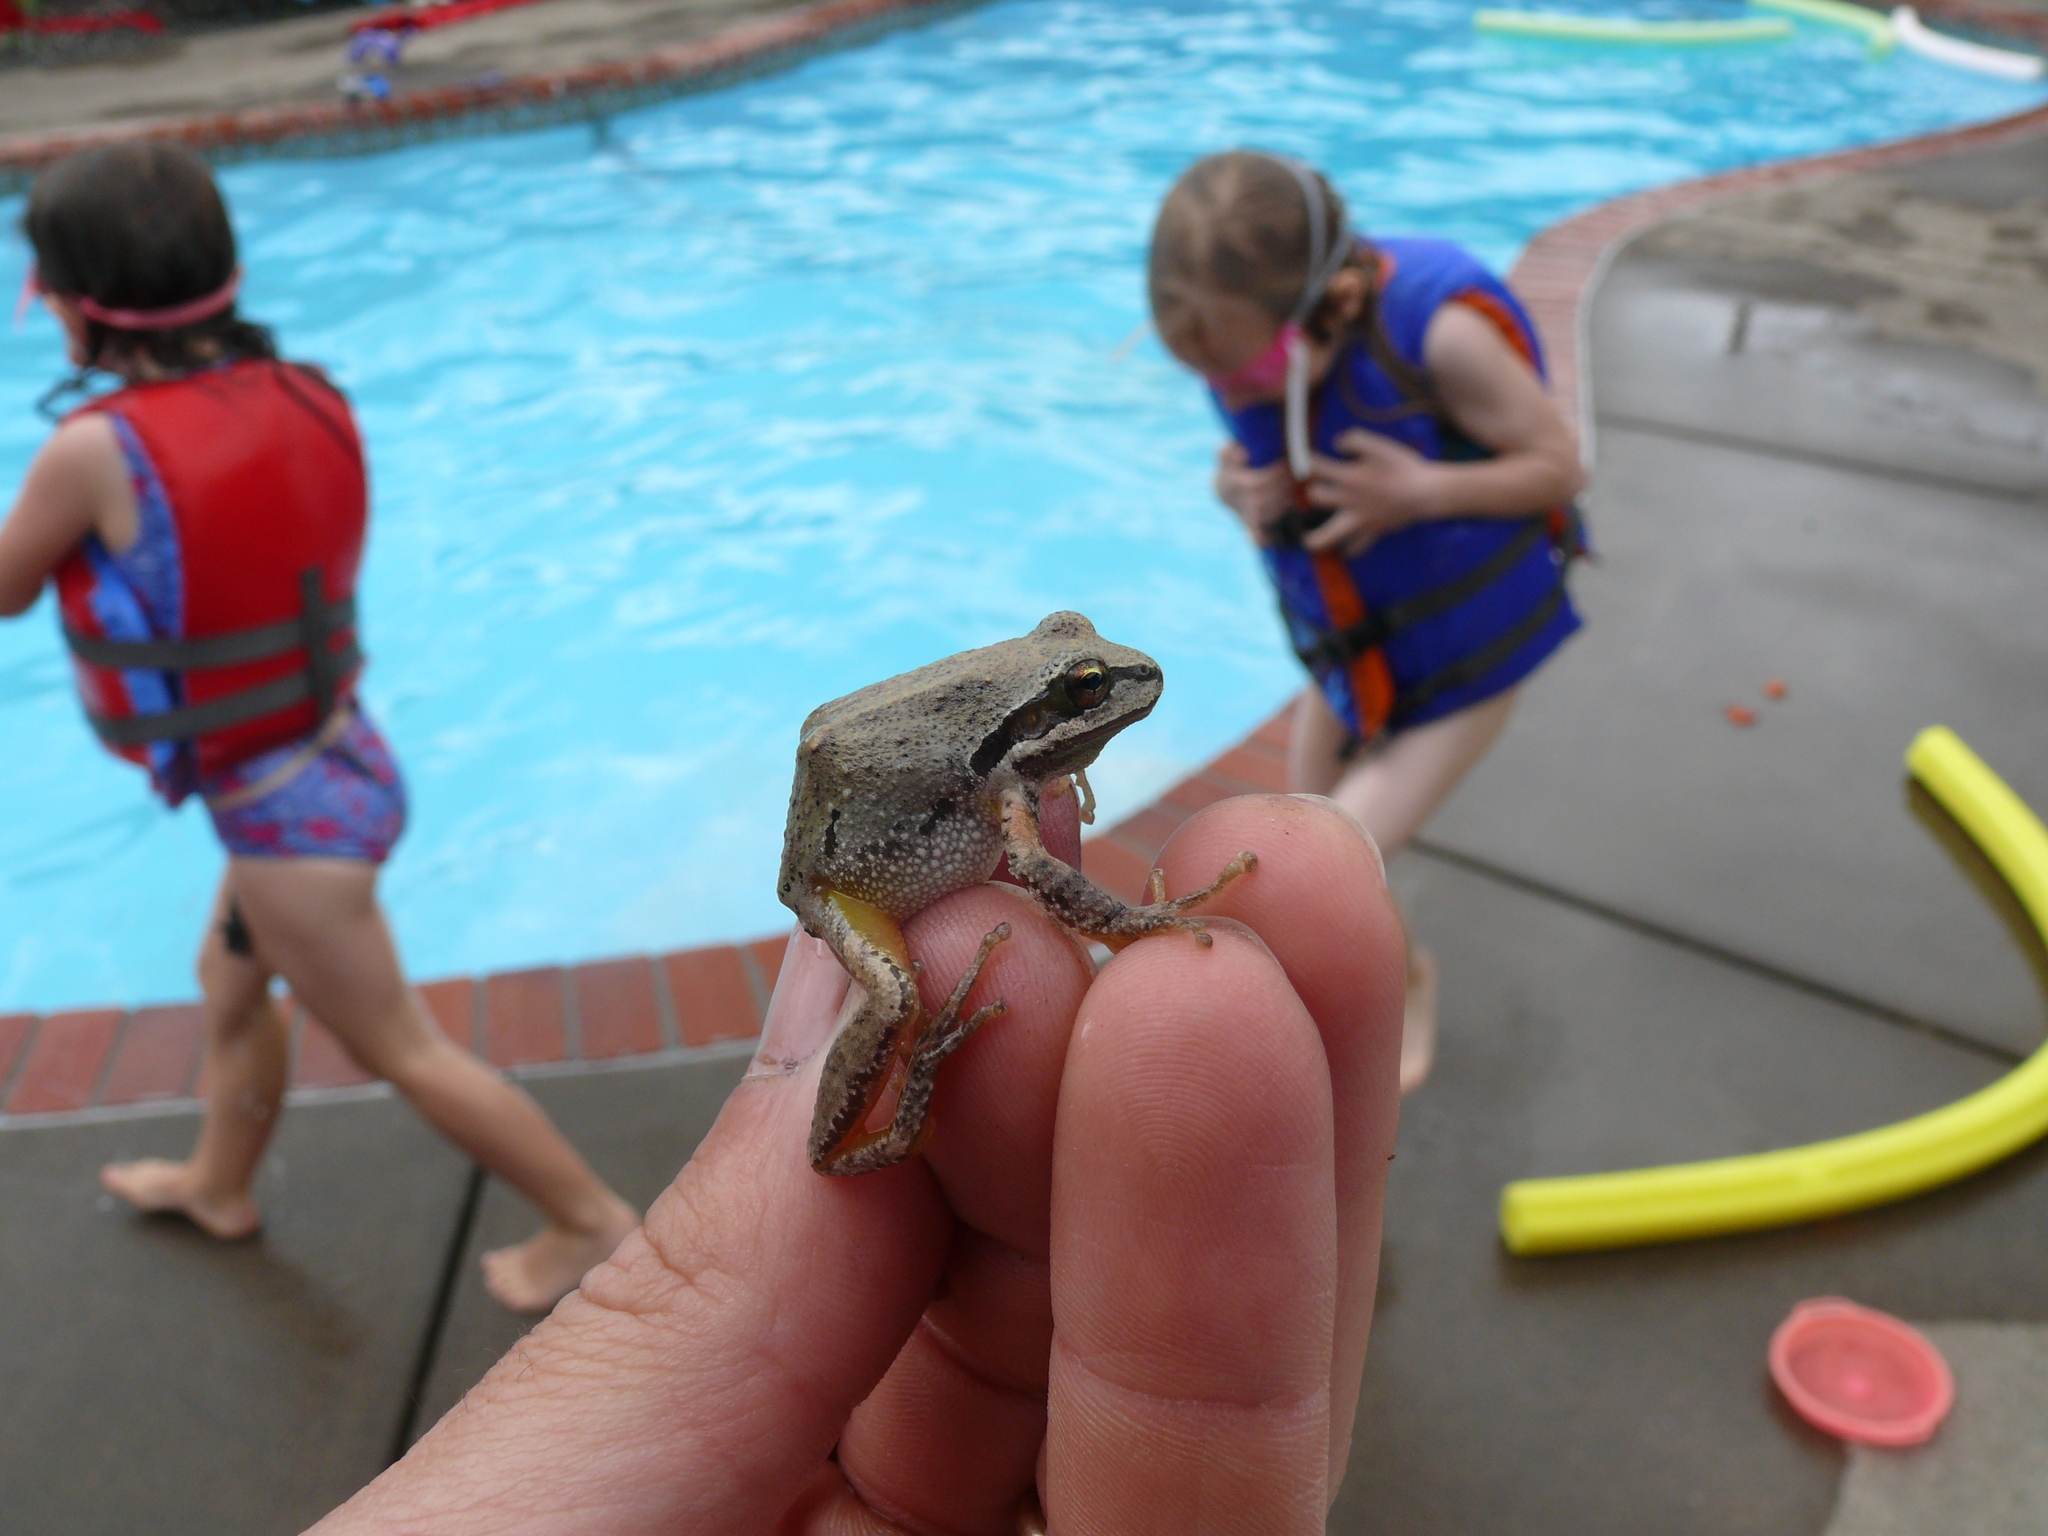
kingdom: Animalia
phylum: Chordata
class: Amphibia
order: Anura
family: Hylidae
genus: Pseudacris
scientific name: Pseudacris regilla
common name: Pacific chorus frog
